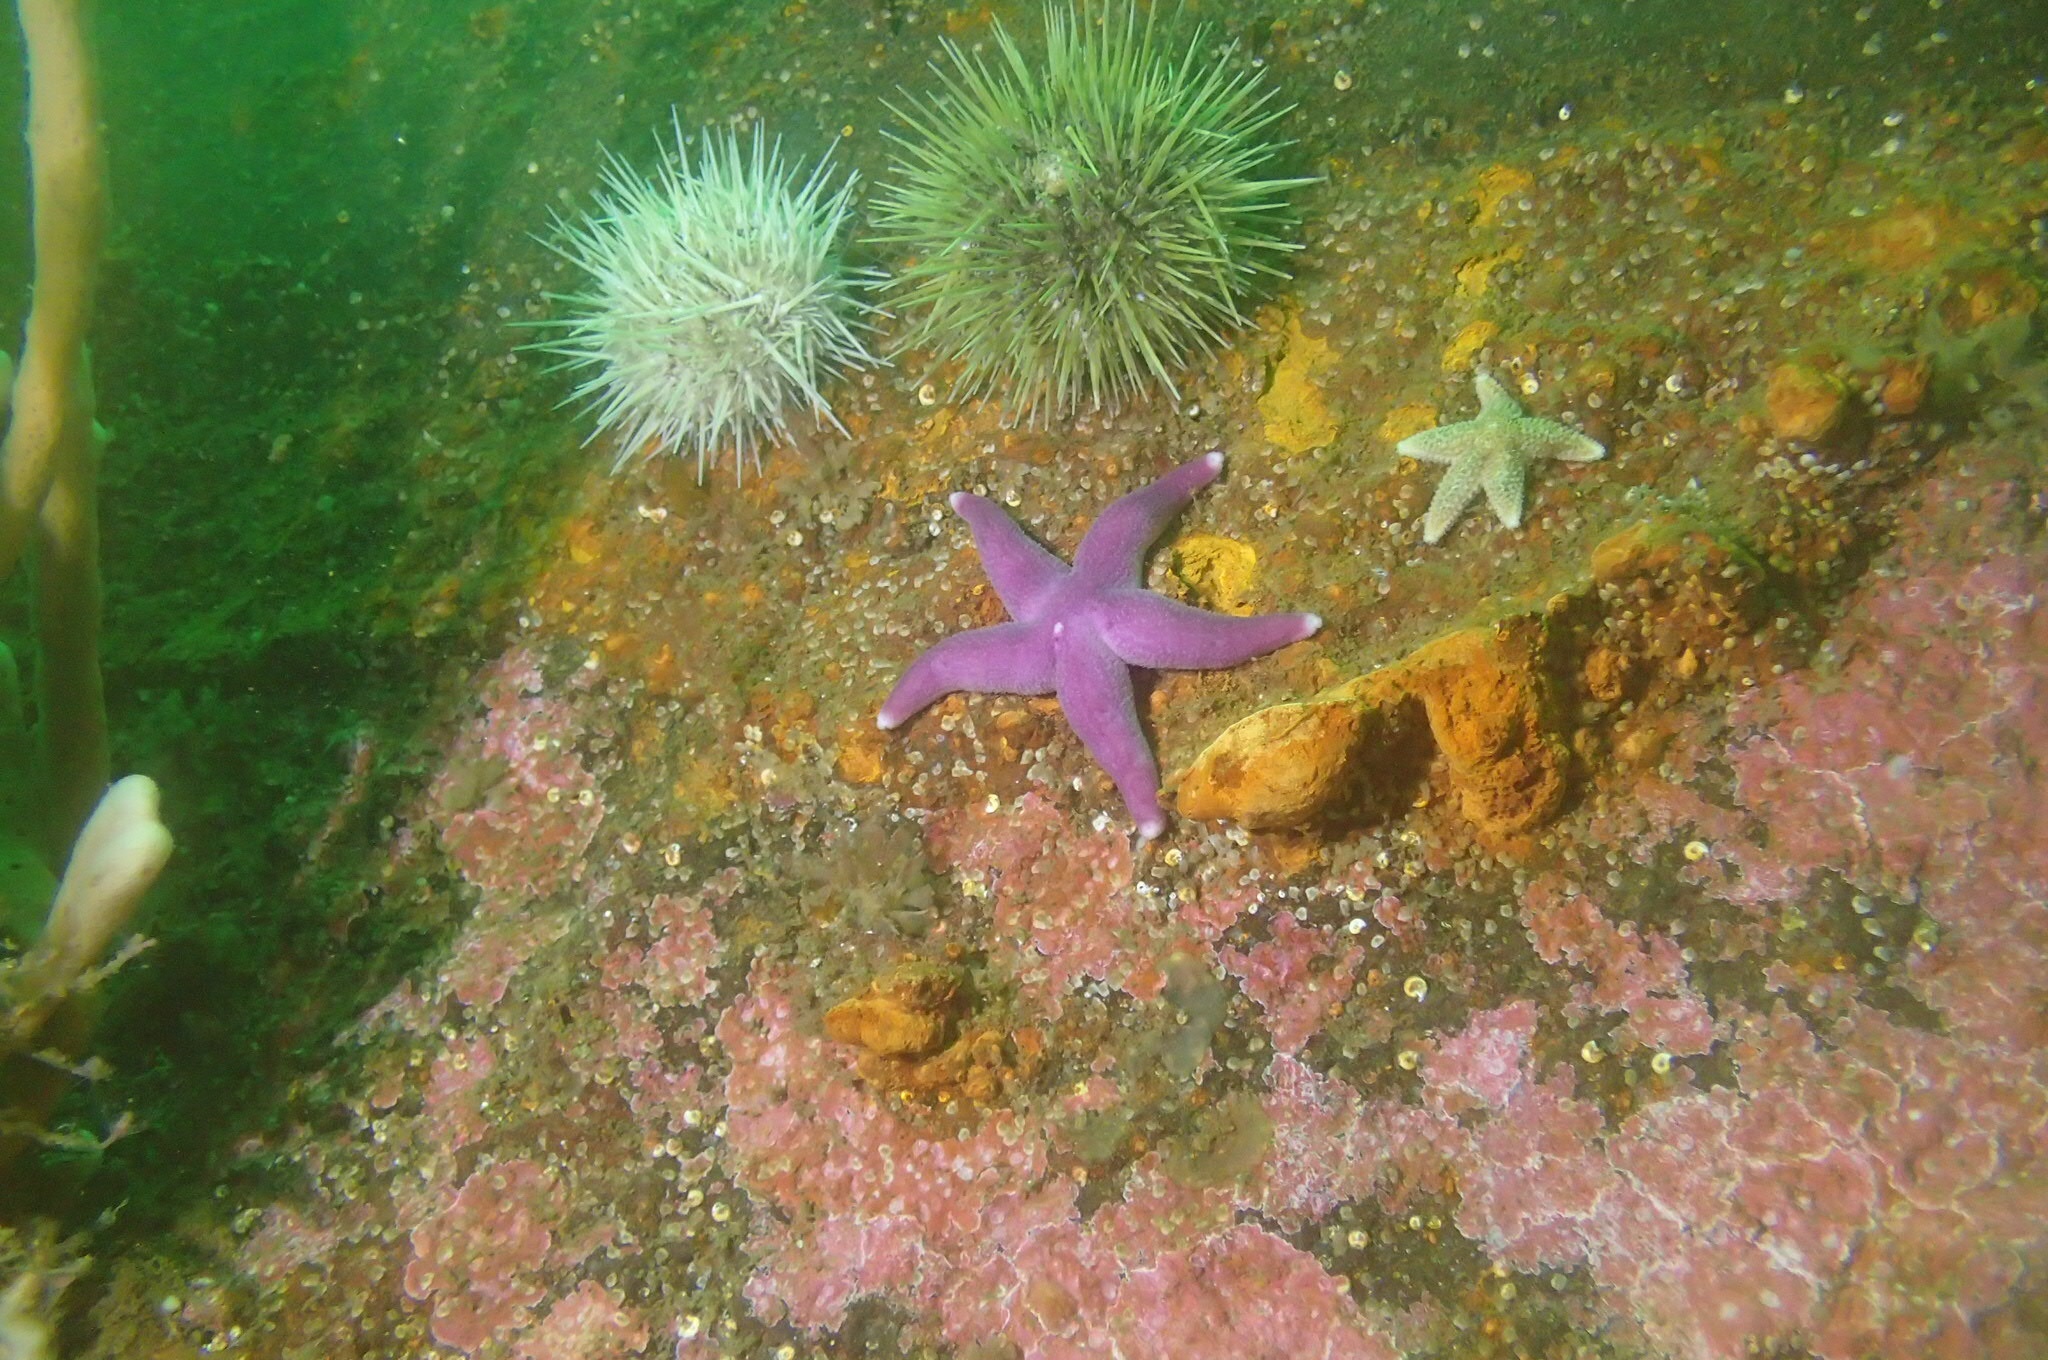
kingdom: Animalia
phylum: Echinodermata
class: Echinoidea
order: Camarodonta
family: Strongylocentrotidae
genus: Strongylocentrotus
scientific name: Strongylocentrotus droebachiensis
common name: Northern sea urchin
